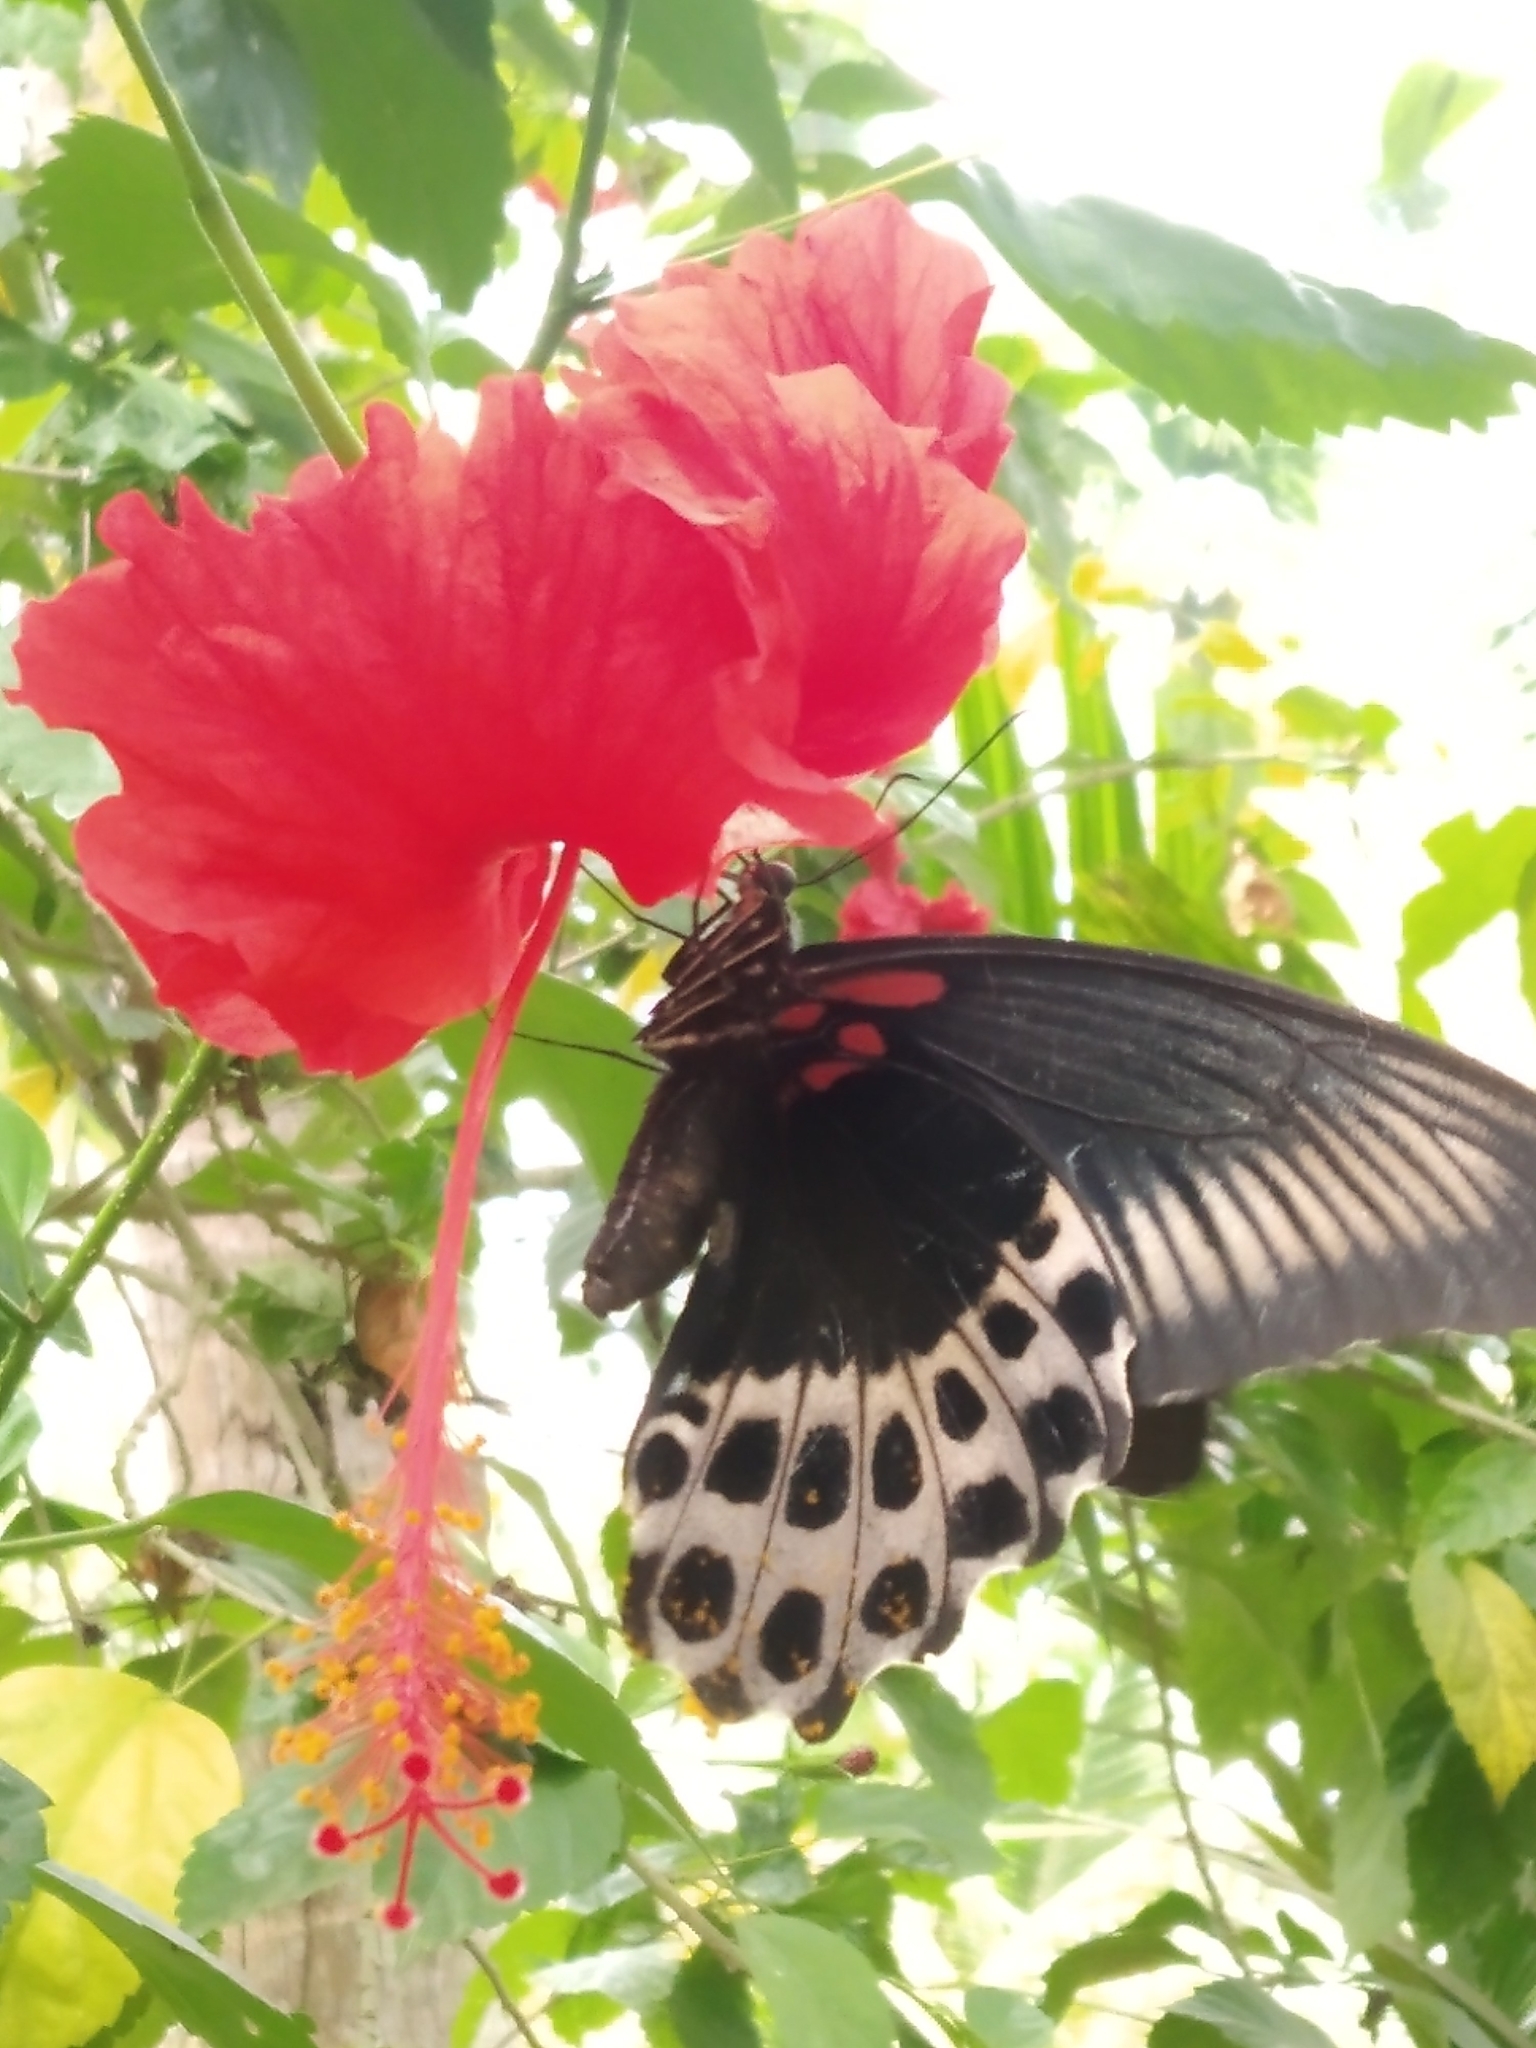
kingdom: Animalia
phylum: Arthropoda
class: Insecta
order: Lepidoptera
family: Papilionidae
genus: Papilio
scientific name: Papilio memnon
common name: Great mormon
